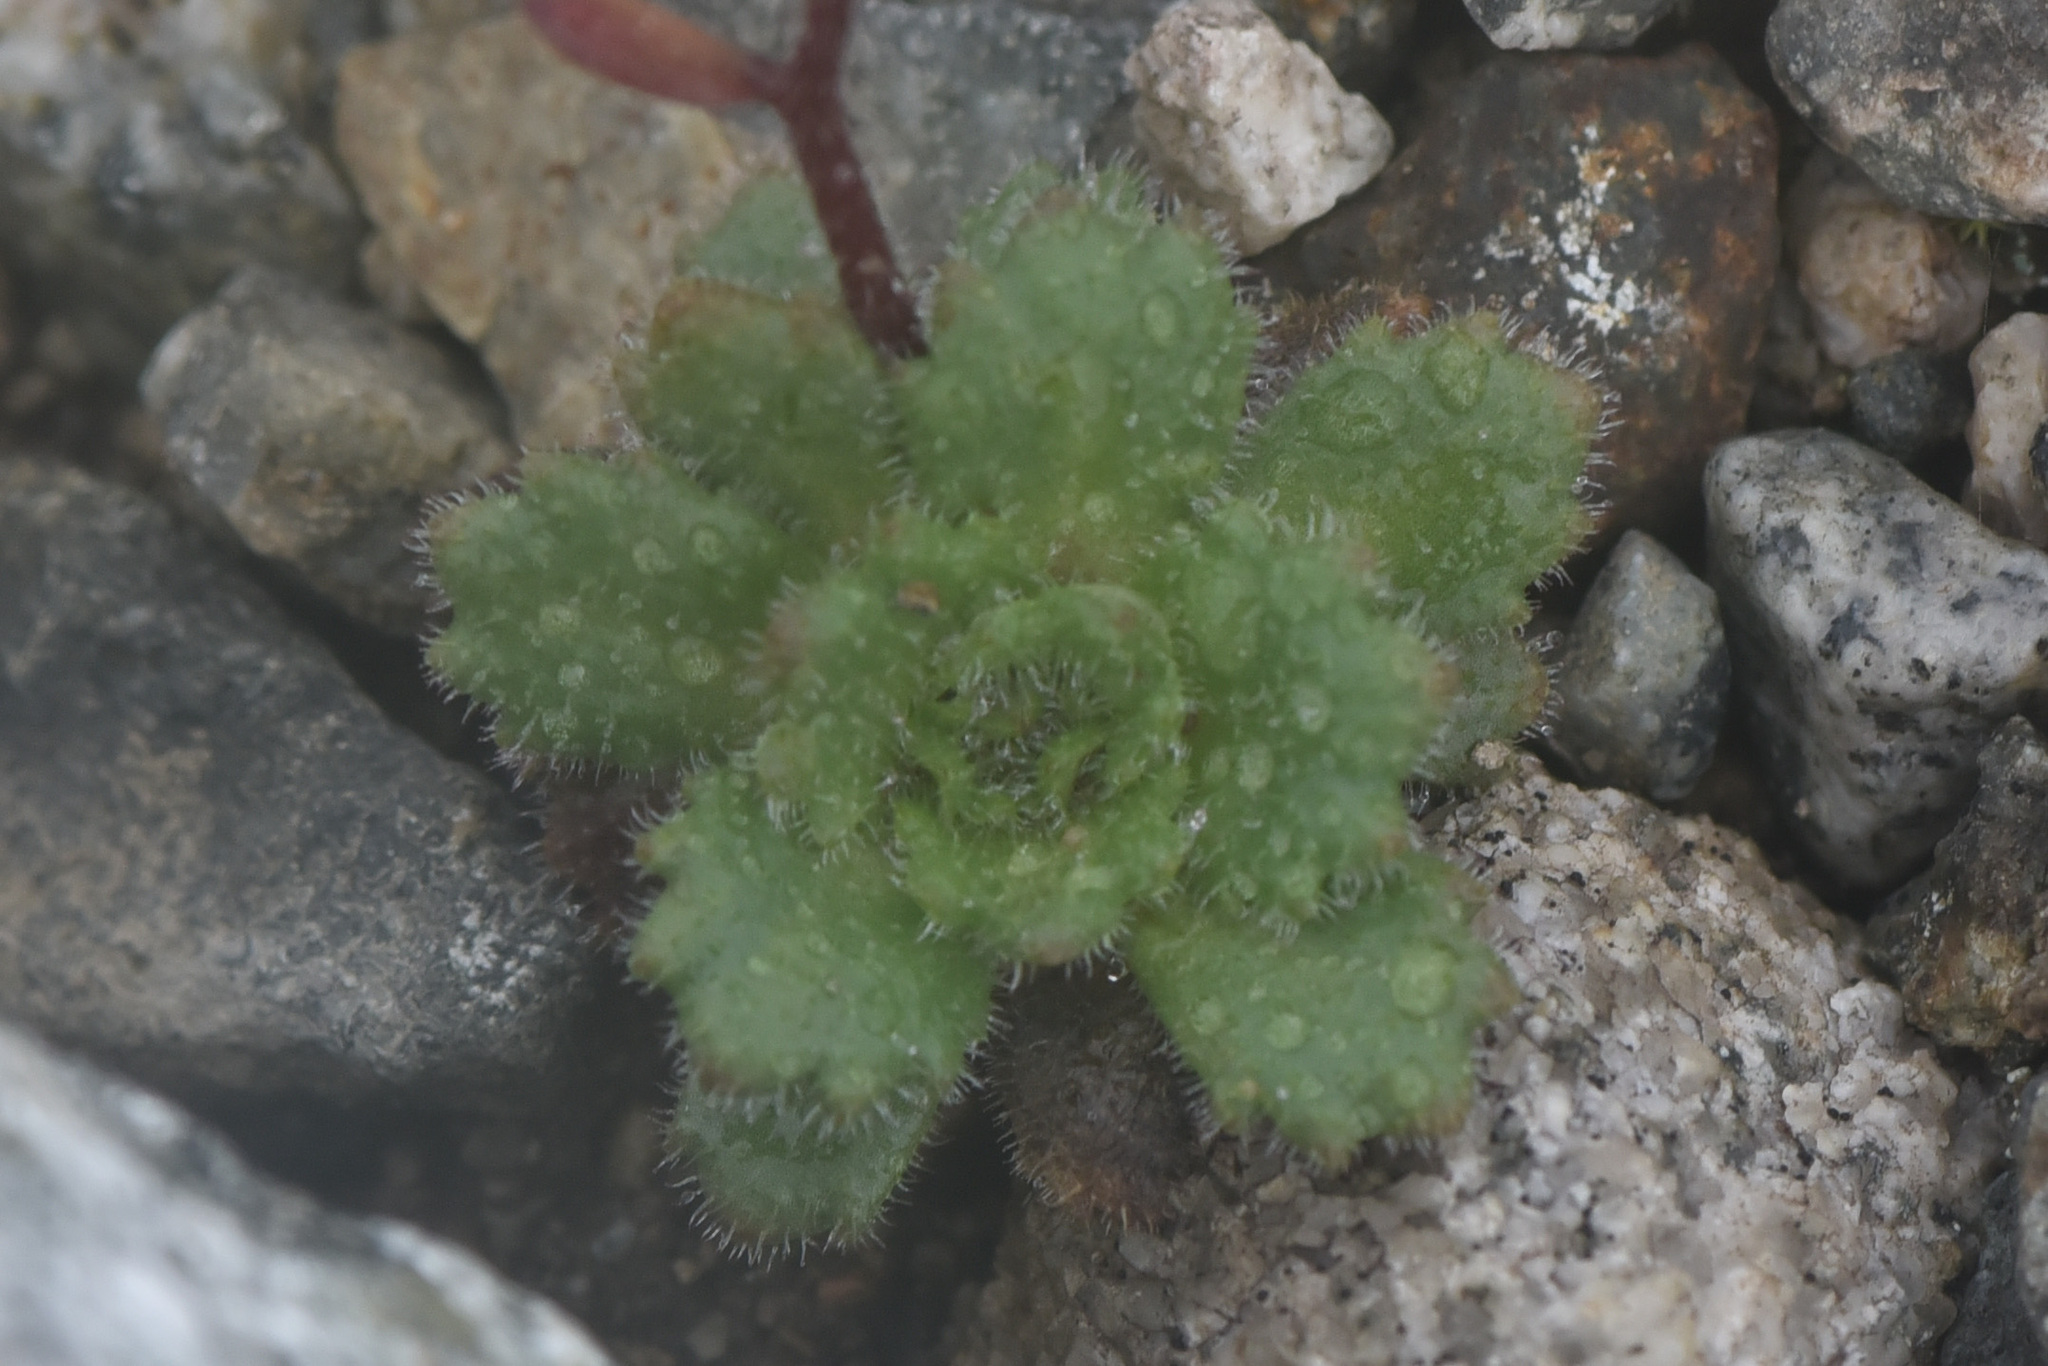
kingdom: Plantae
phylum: Tracheophyta
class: Magnoliopsida
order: Saxifragales
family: Saxifragaceae
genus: Micranthes
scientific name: Micranthes ferruginea
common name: Rusty saxifrage
